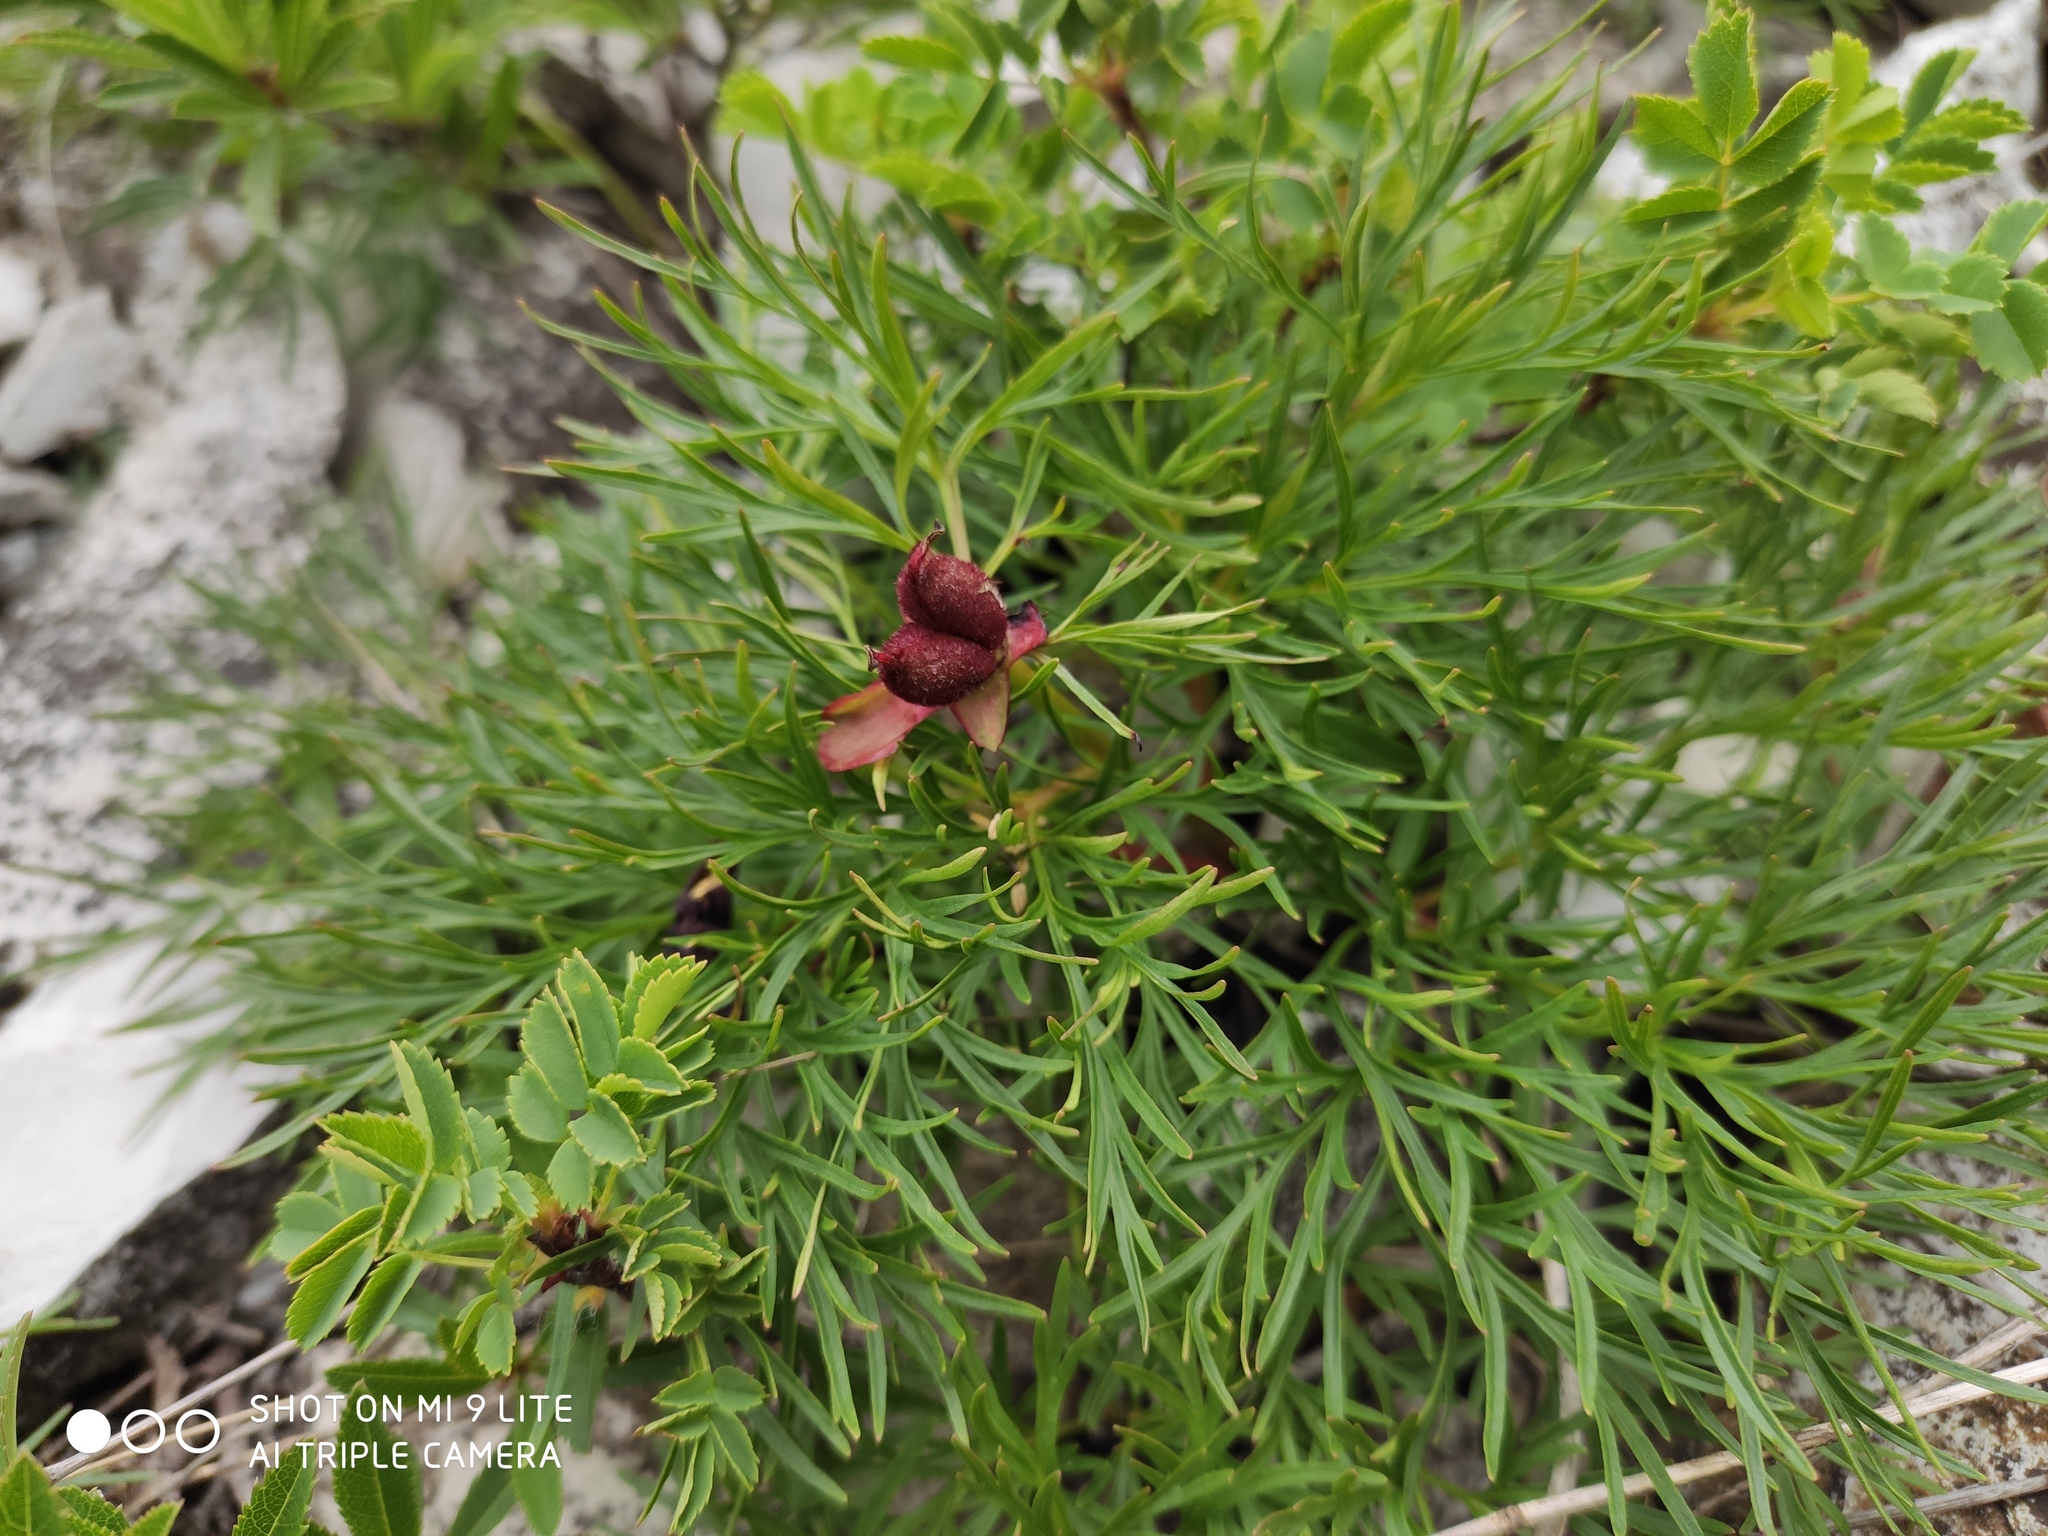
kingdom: Plantae
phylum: Tracheophyta
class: Magnoliopsida
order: Saxifragales
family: Paeoniaceae
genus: Paeonia
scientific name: Paeonia tenuifolia
